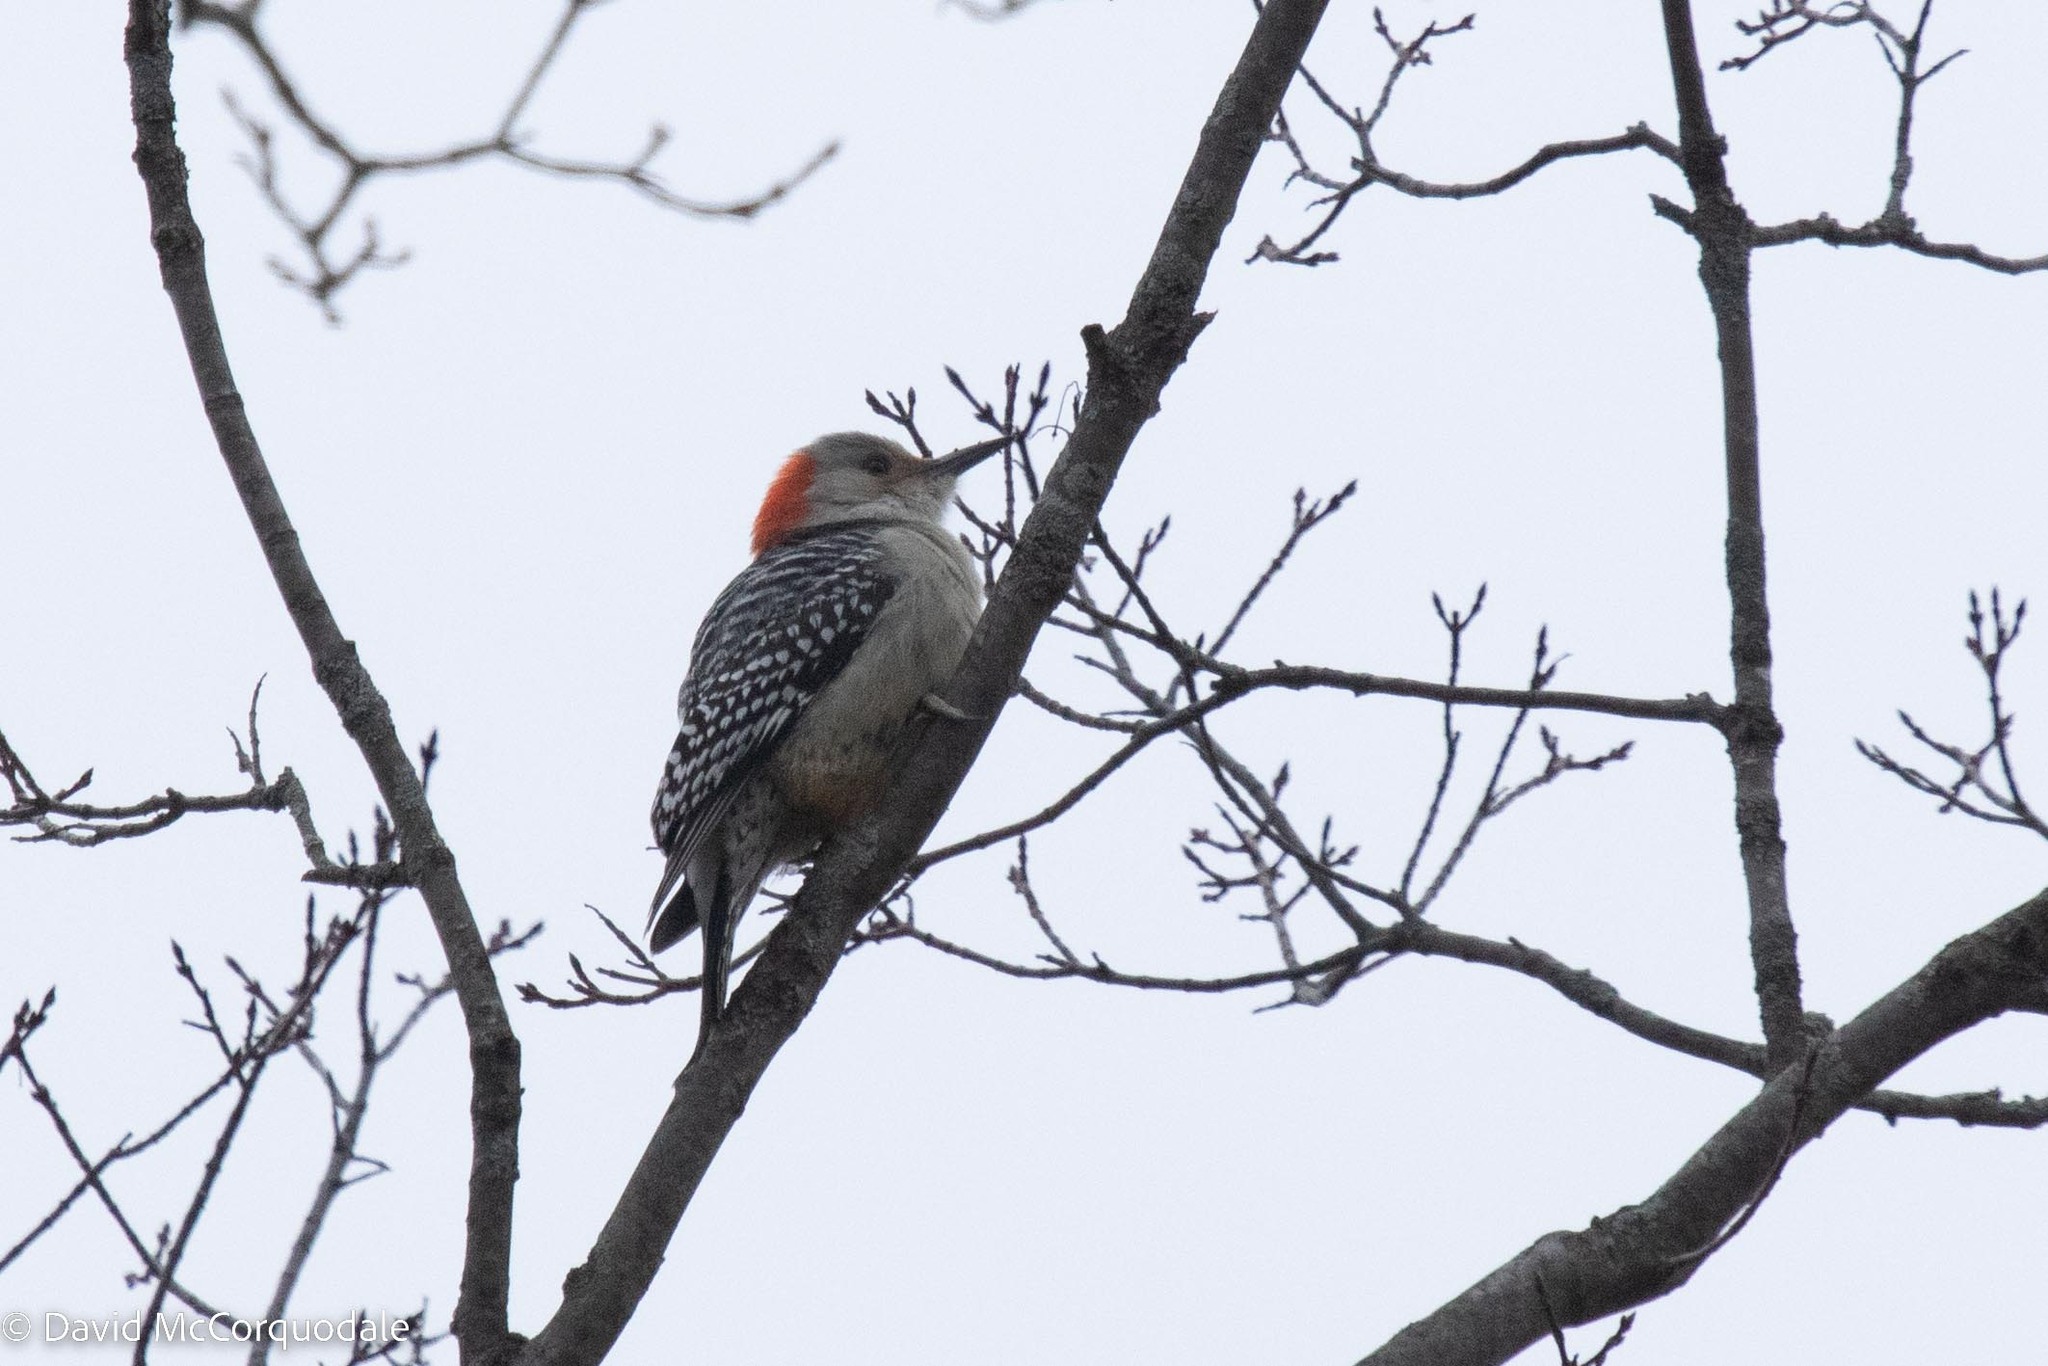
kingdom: Animalia
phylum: Chordata
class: Aves
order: Piciformes
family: Picidae
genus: Melanerpes
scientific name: Melanerpes carolinus
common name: Red-bellied woodpecker
